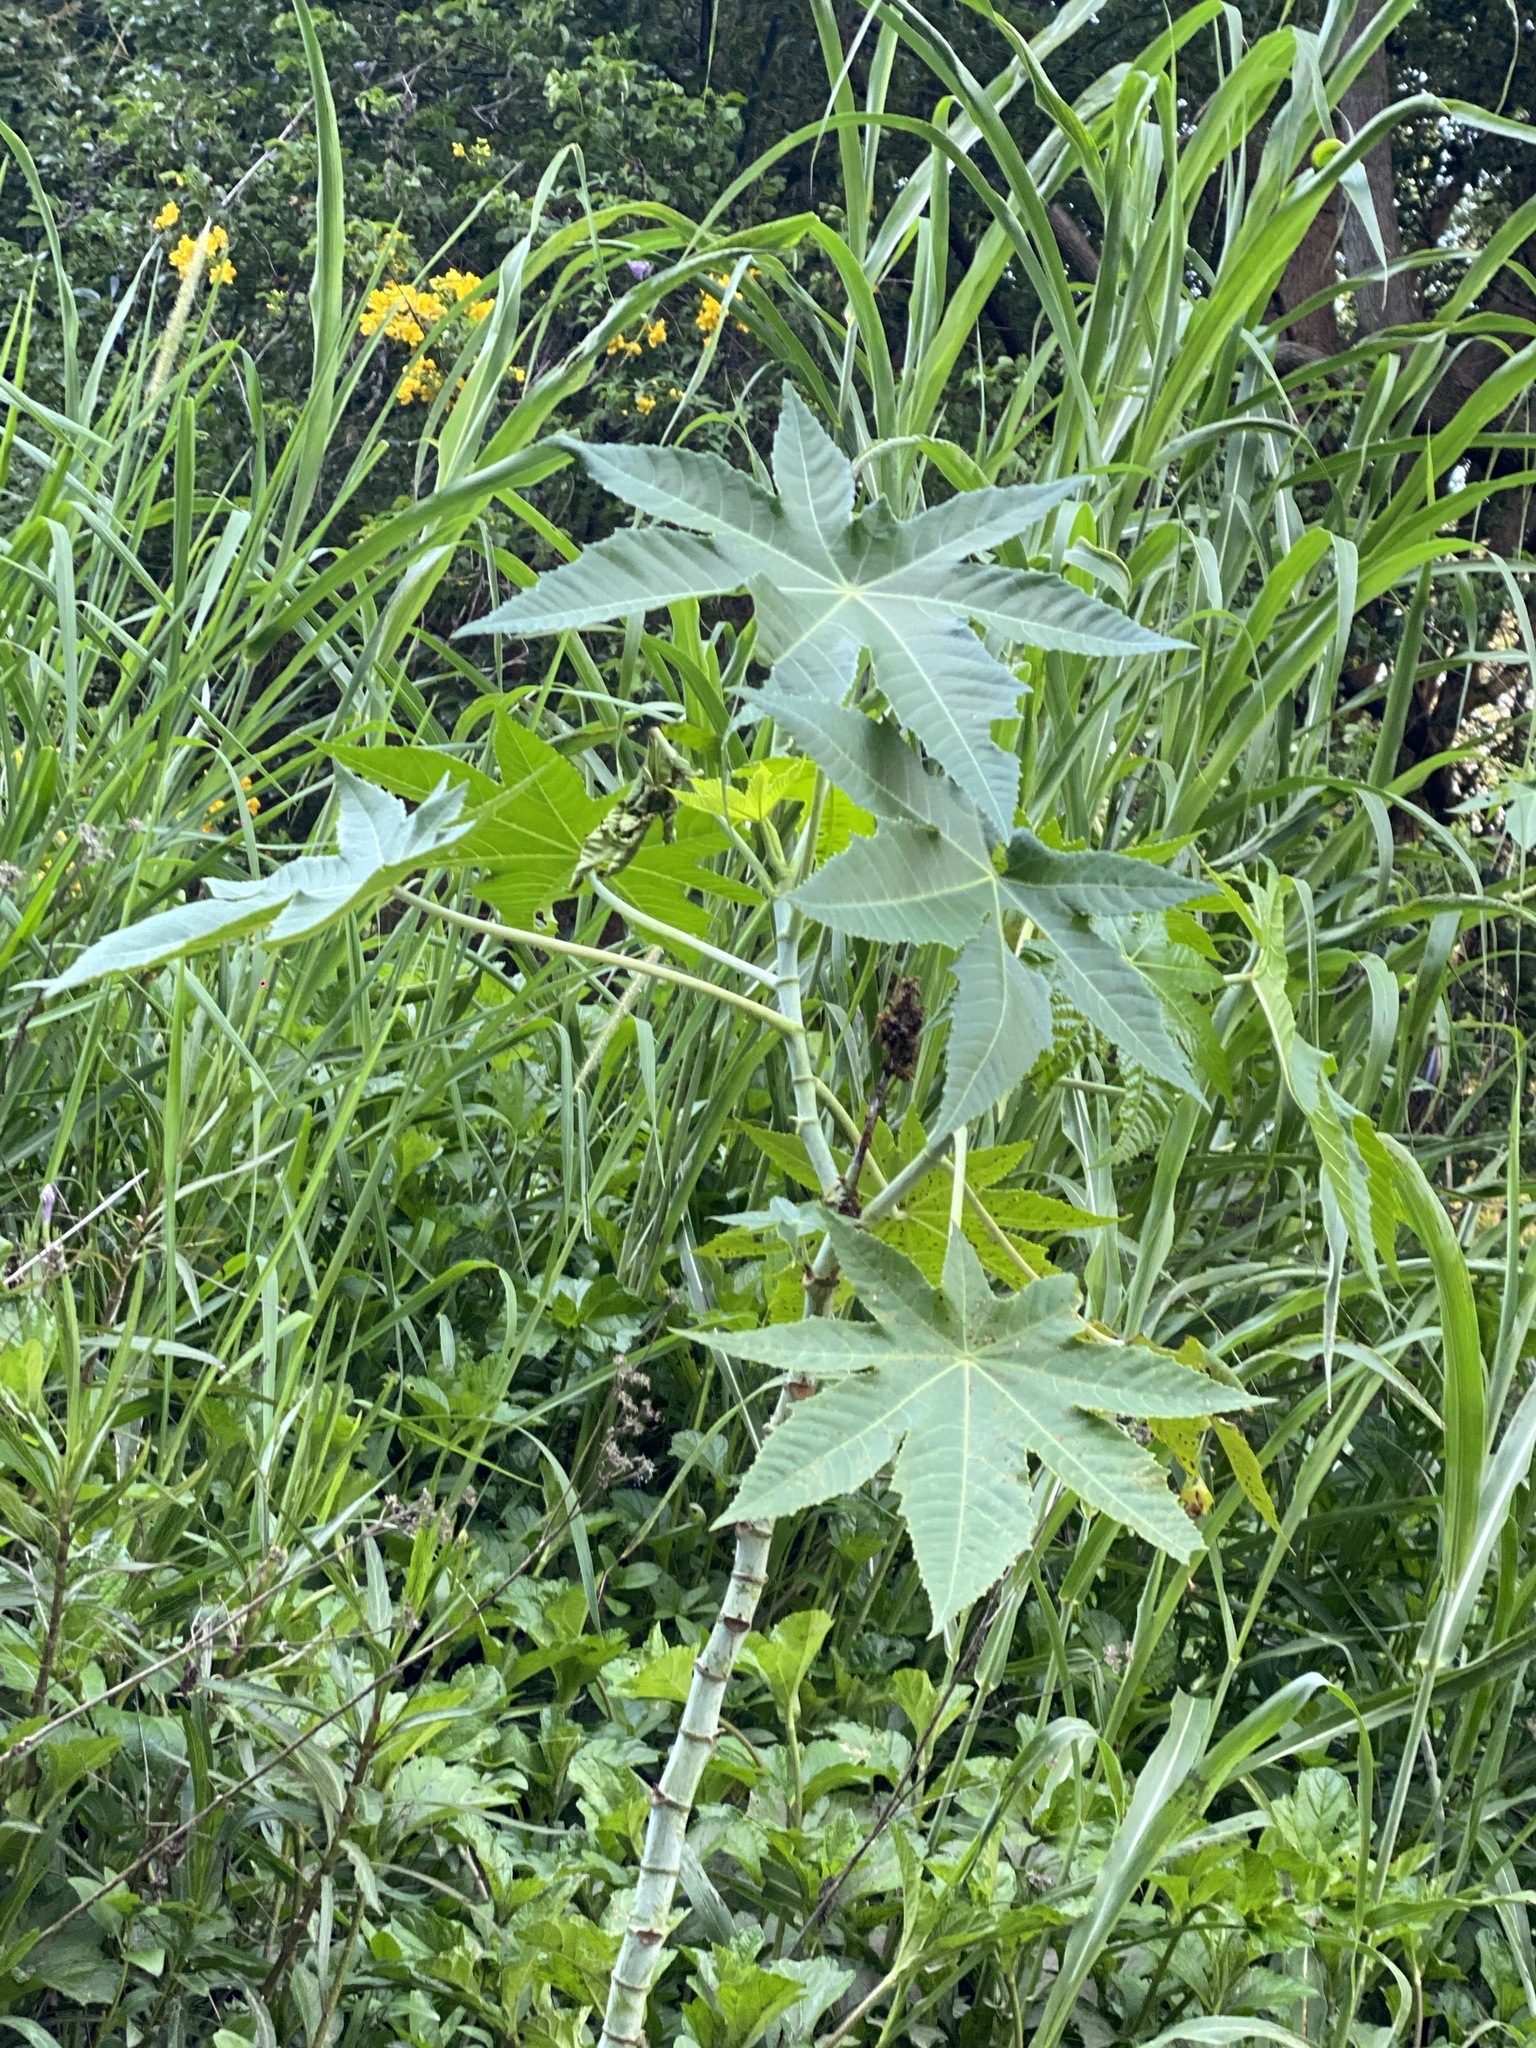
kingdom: Plantae
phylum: Tracheophyta
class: Magnoliopsida
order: Malpighiales
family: Euphorbiaceae
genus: Ricinus
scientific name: Ricinus communis
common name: Castor-oil-plant
